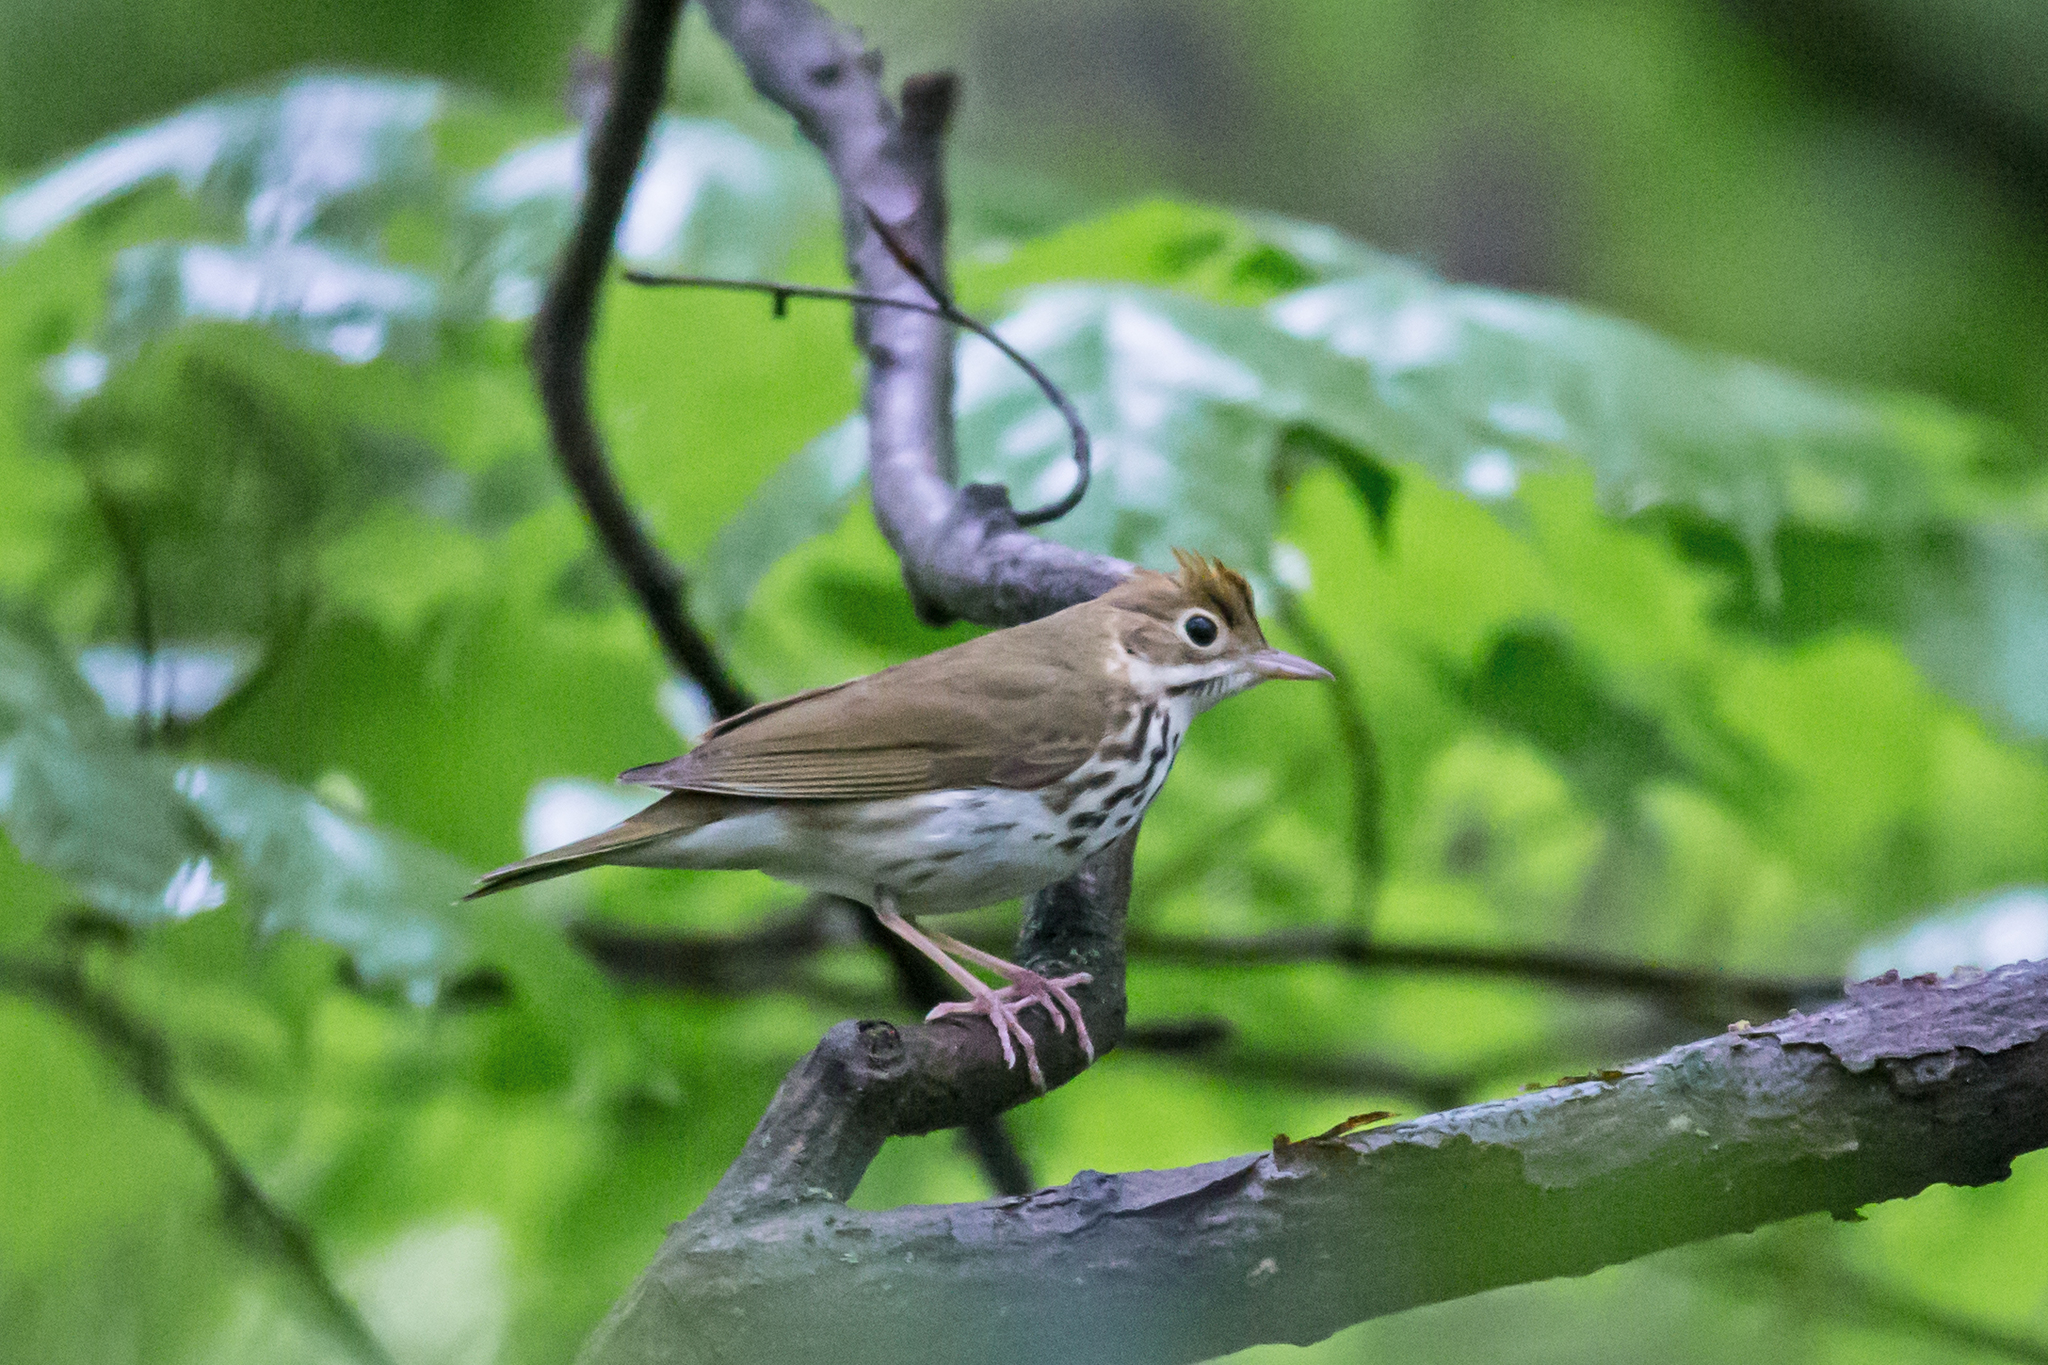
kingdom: Animalia
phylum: Chordata
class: Aves
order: Passeriformes
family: Parulidae
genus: Seiurus
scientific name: Seiurus aurocapilla
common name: Ovenbird
